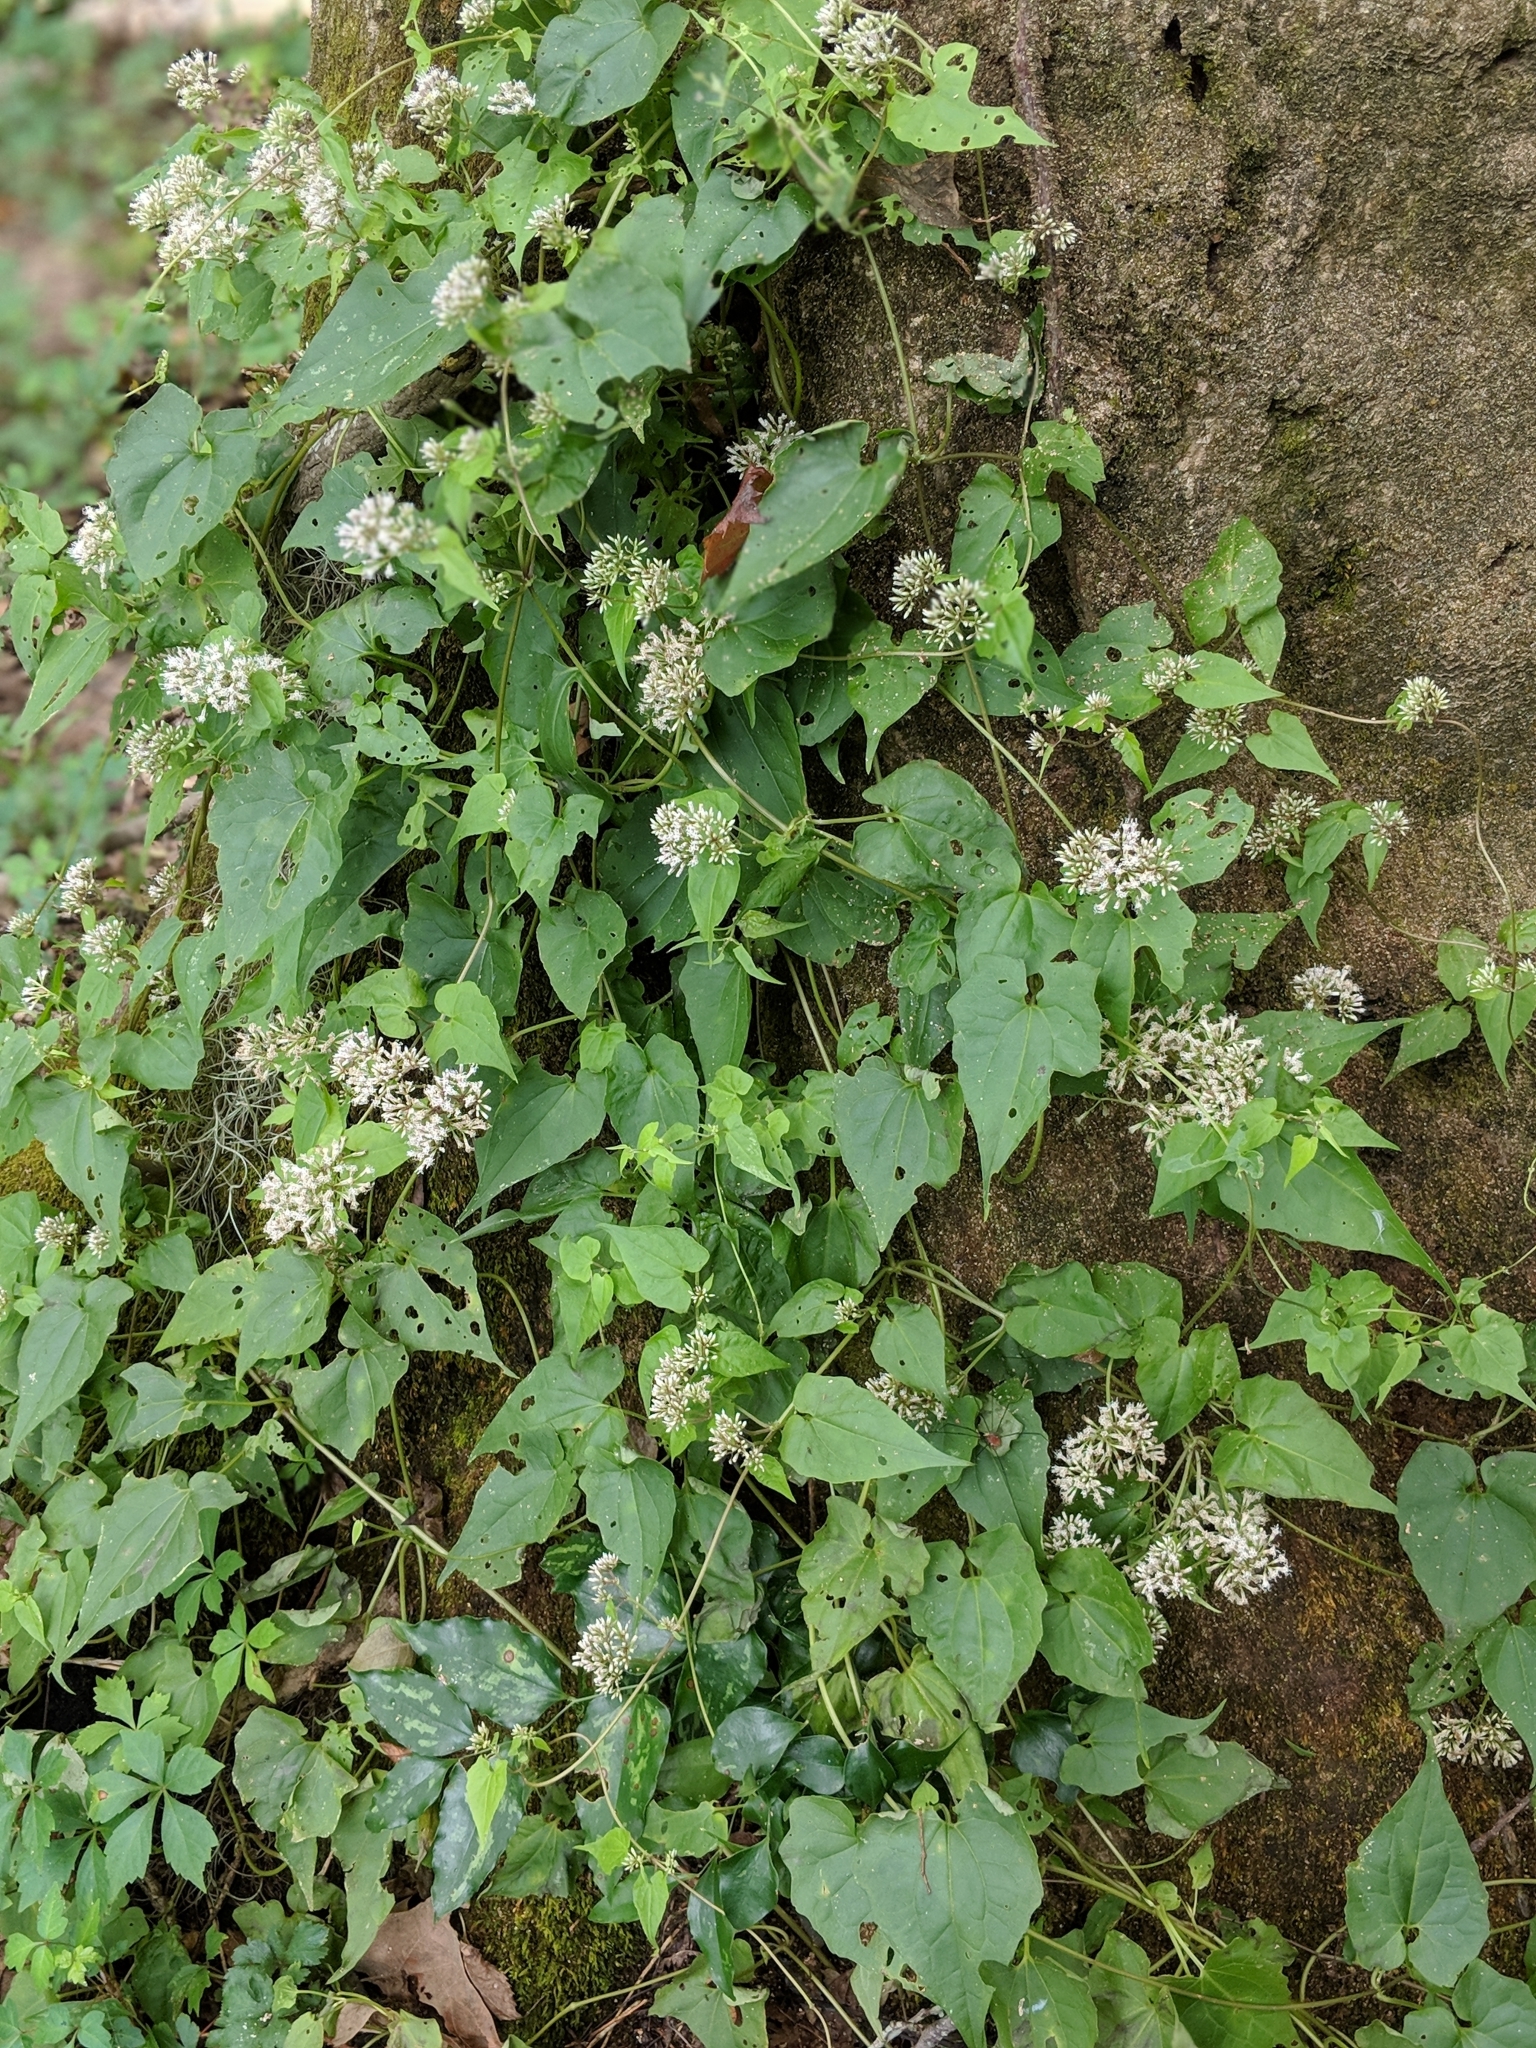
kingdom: Plantae
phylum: Tracheophyta
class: Magnoliopsida
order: Asterales
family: Asteraceae
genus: Mikania
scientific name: Mikania scandens
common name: Climbing hempvine
